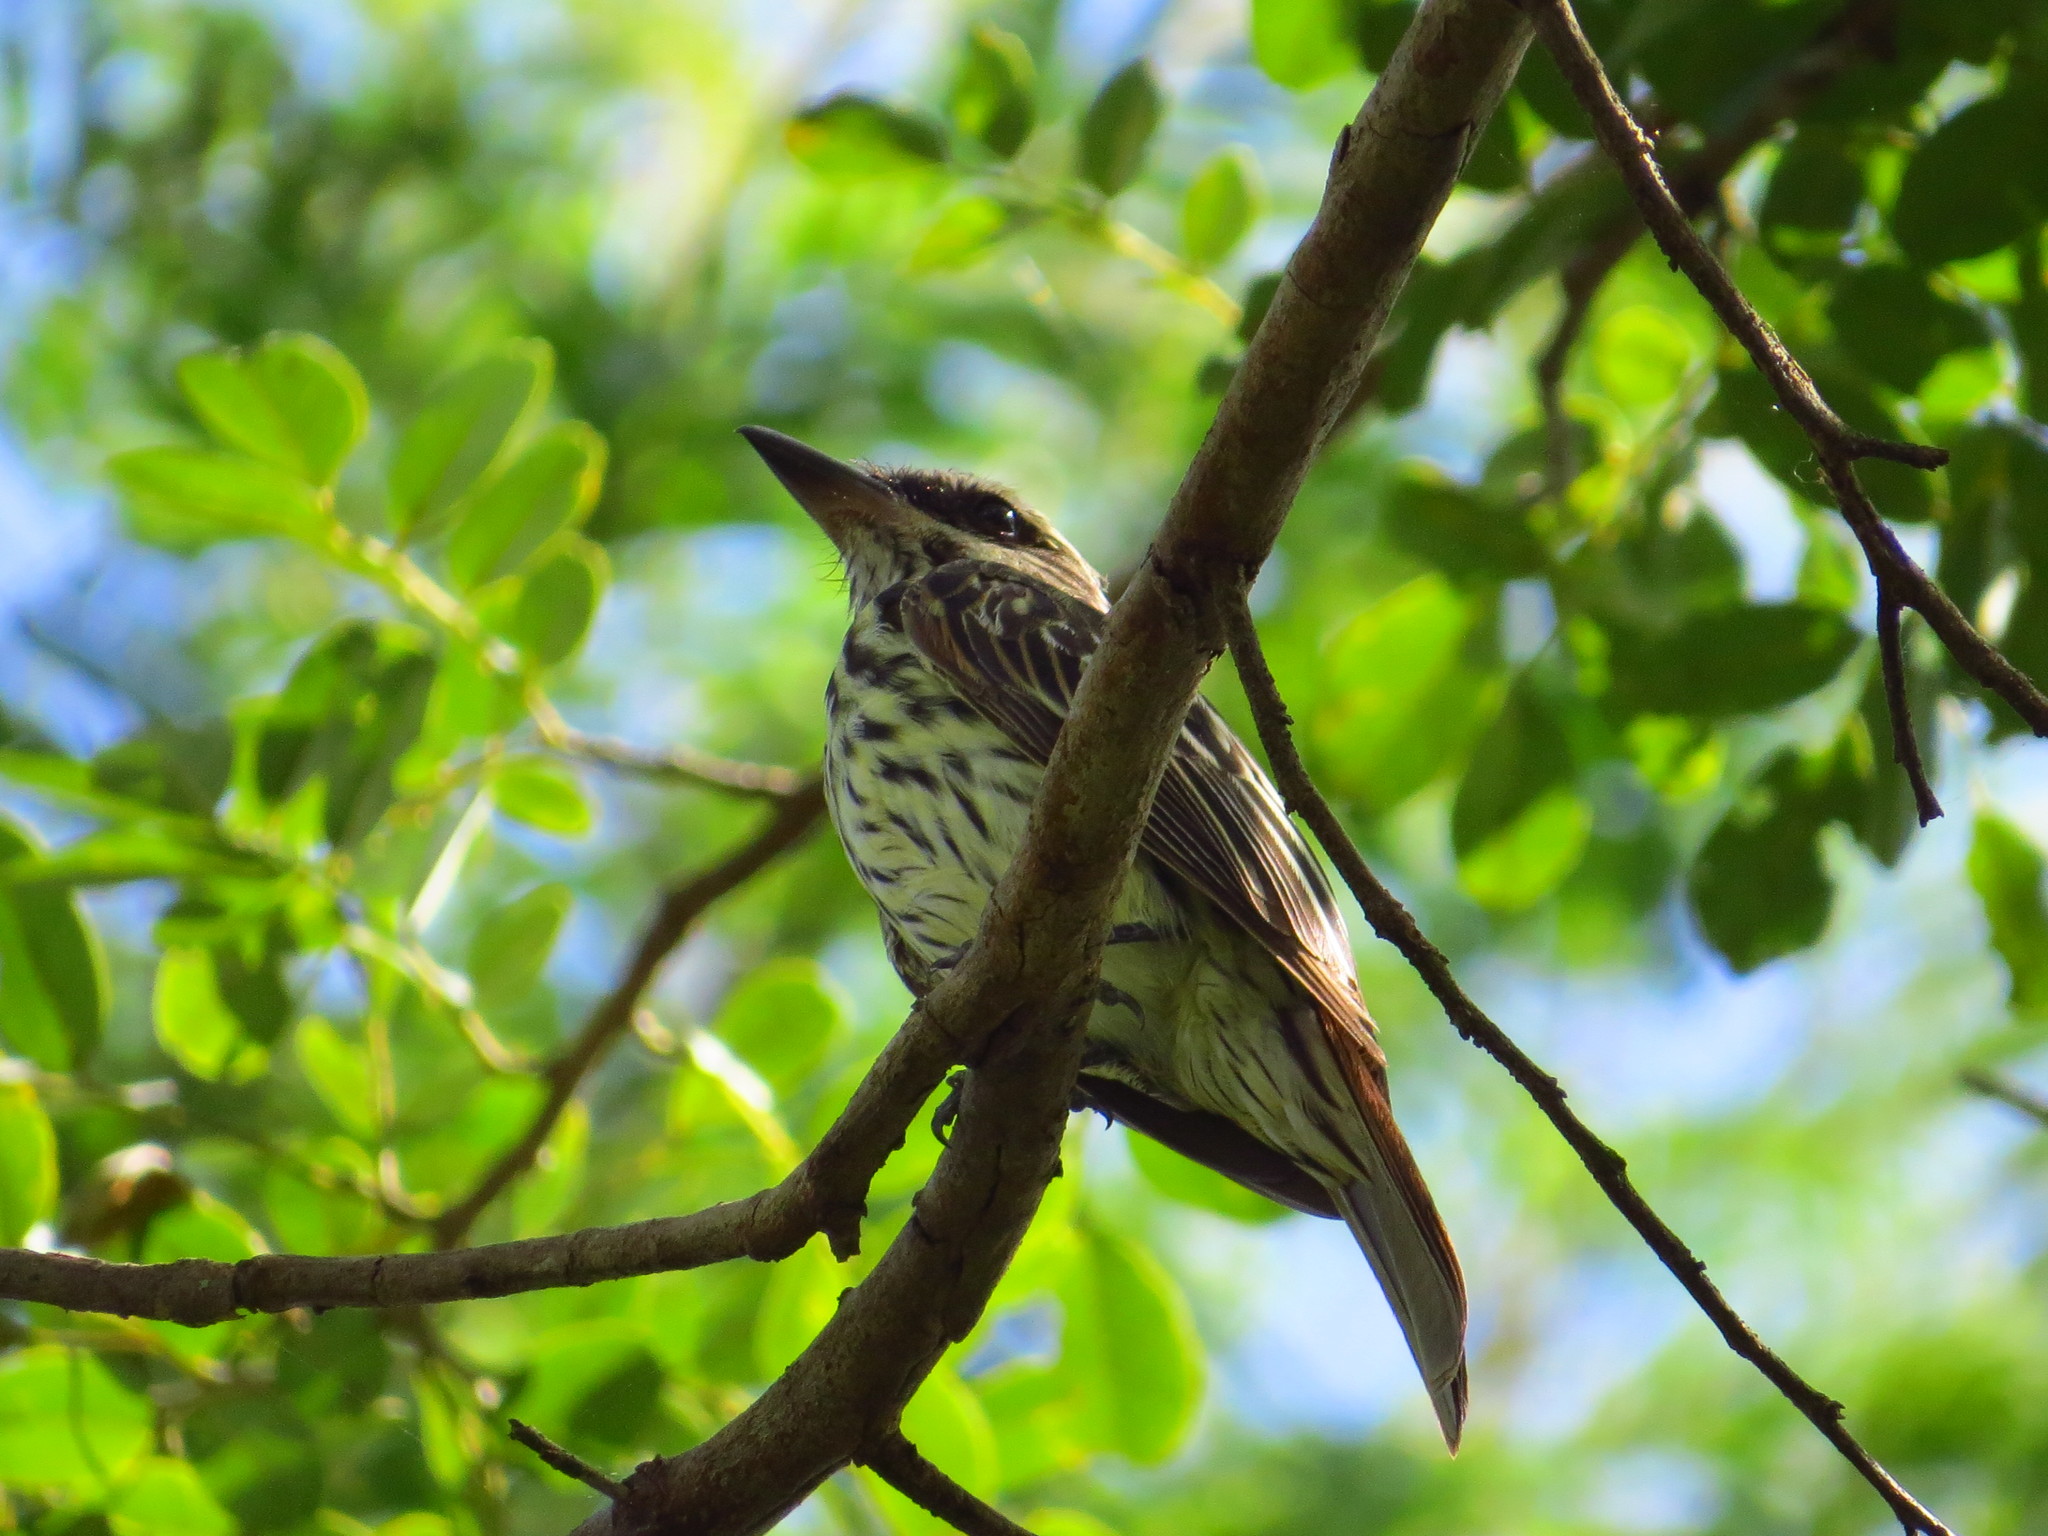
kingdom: Animalia
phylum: Chordata
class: Aves
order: Passeriformes
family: Tyrannidae
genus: Myiodynastes
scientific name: Myiodynastes maculatus
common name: Streaked flycatcher
